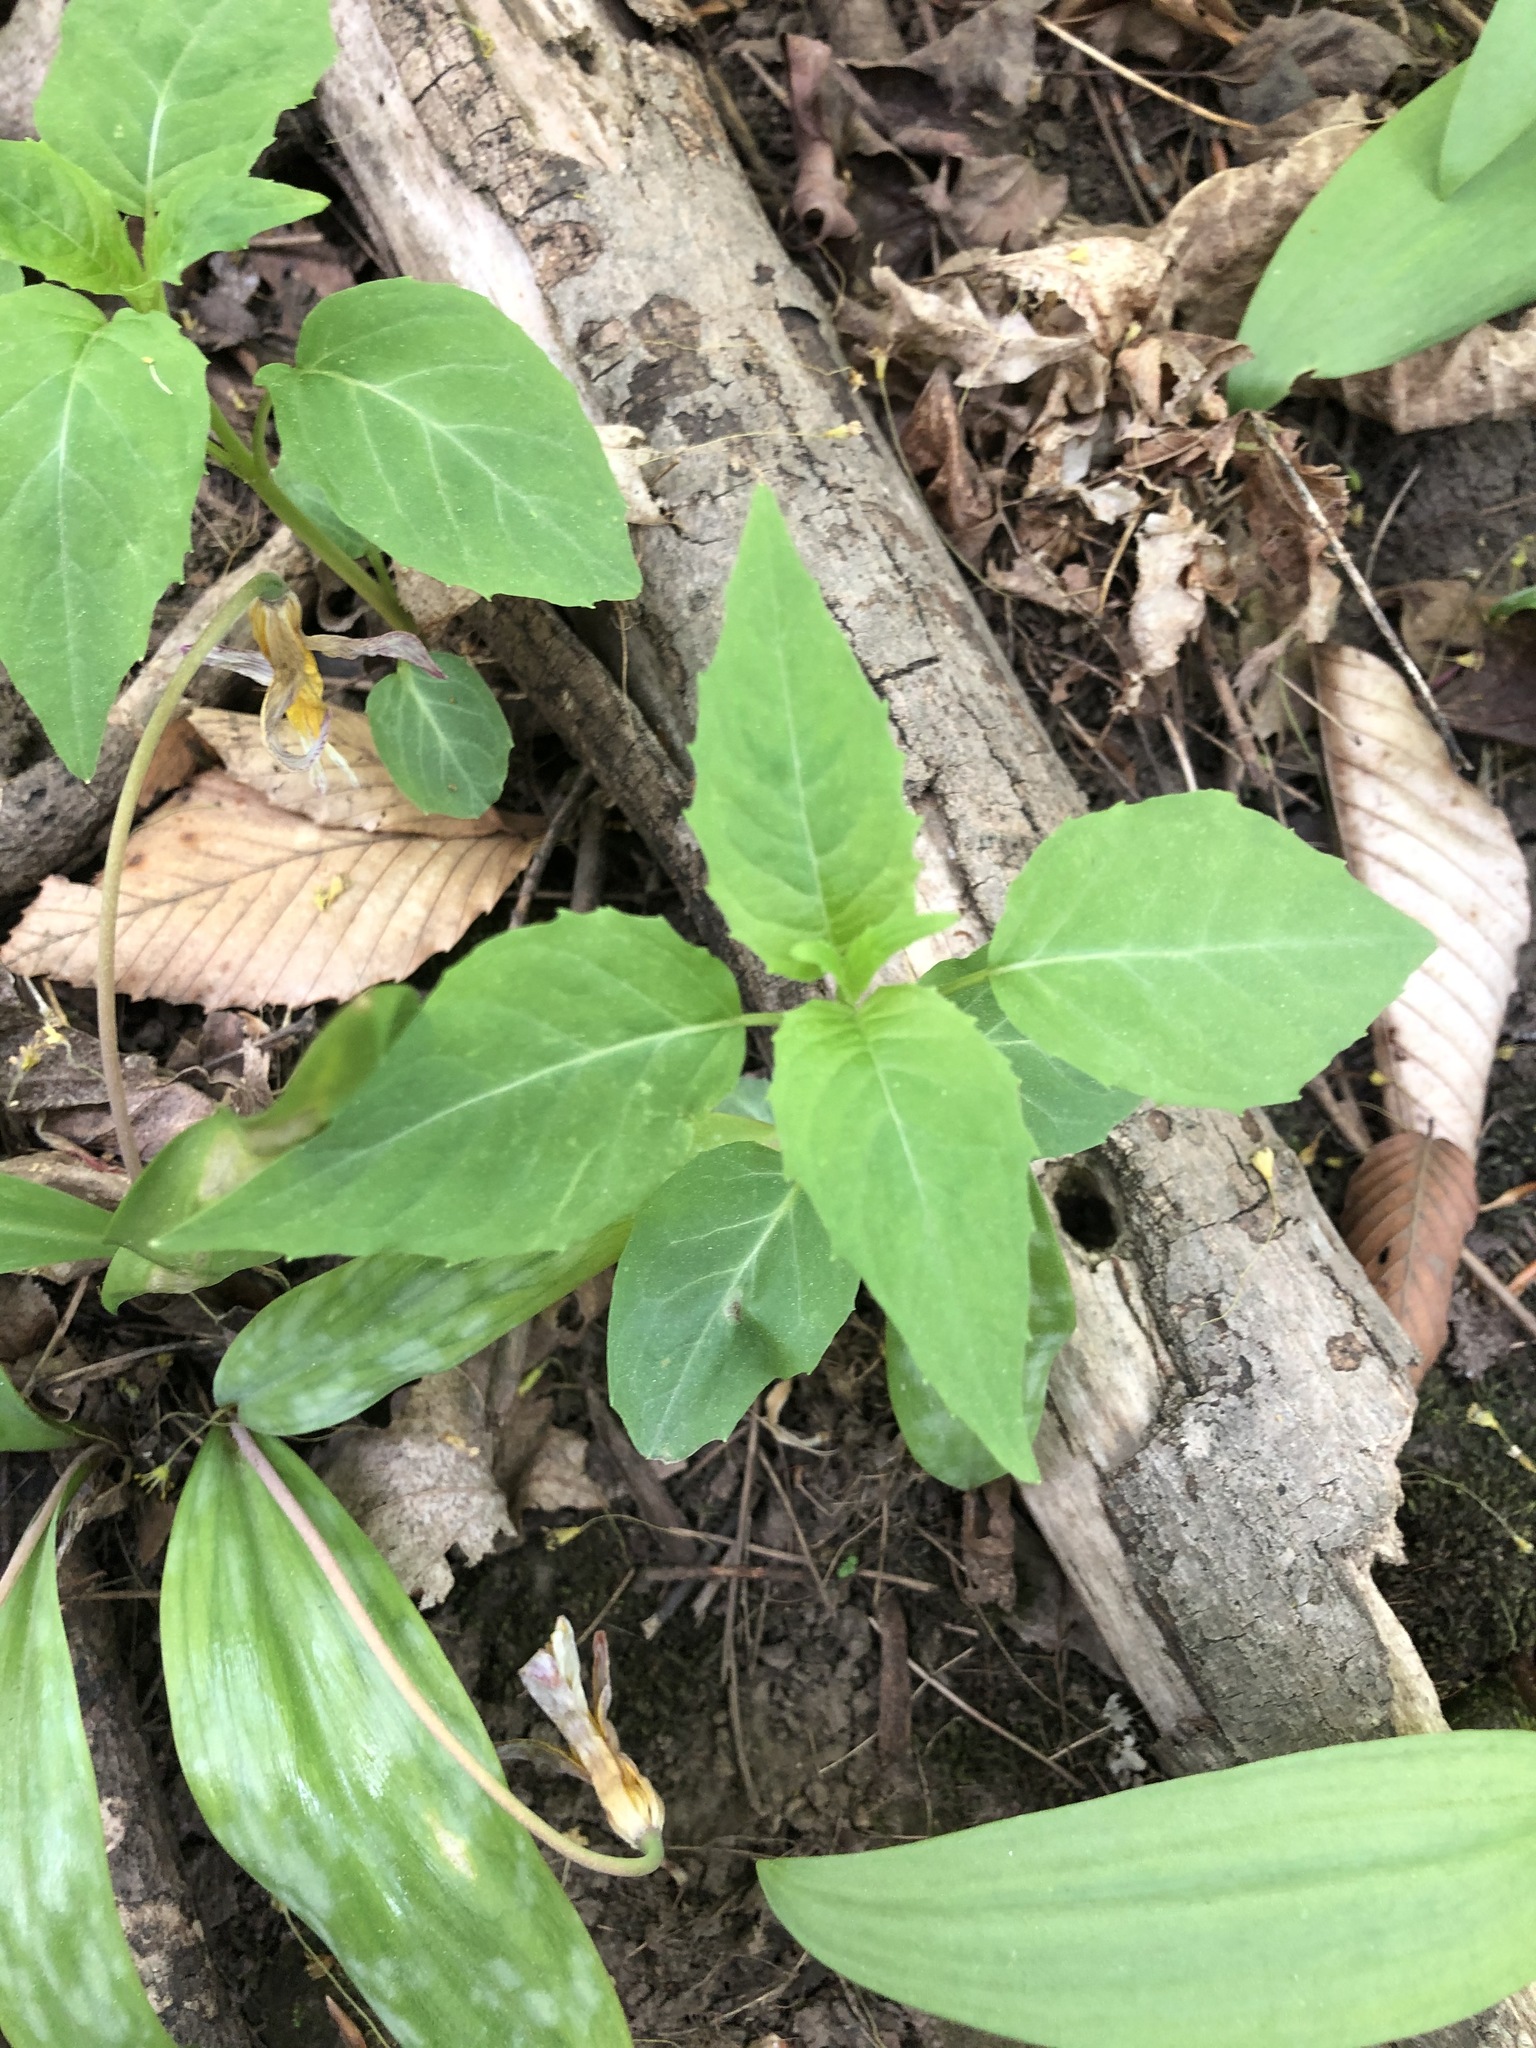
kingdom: Plantae
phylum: Tracheophyta
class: Magnoliopsida
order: Myrtales
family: Onagraceae
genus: Circaea
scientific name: Circaea canadensis
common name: Broad-leaved enchanter's nightshade
